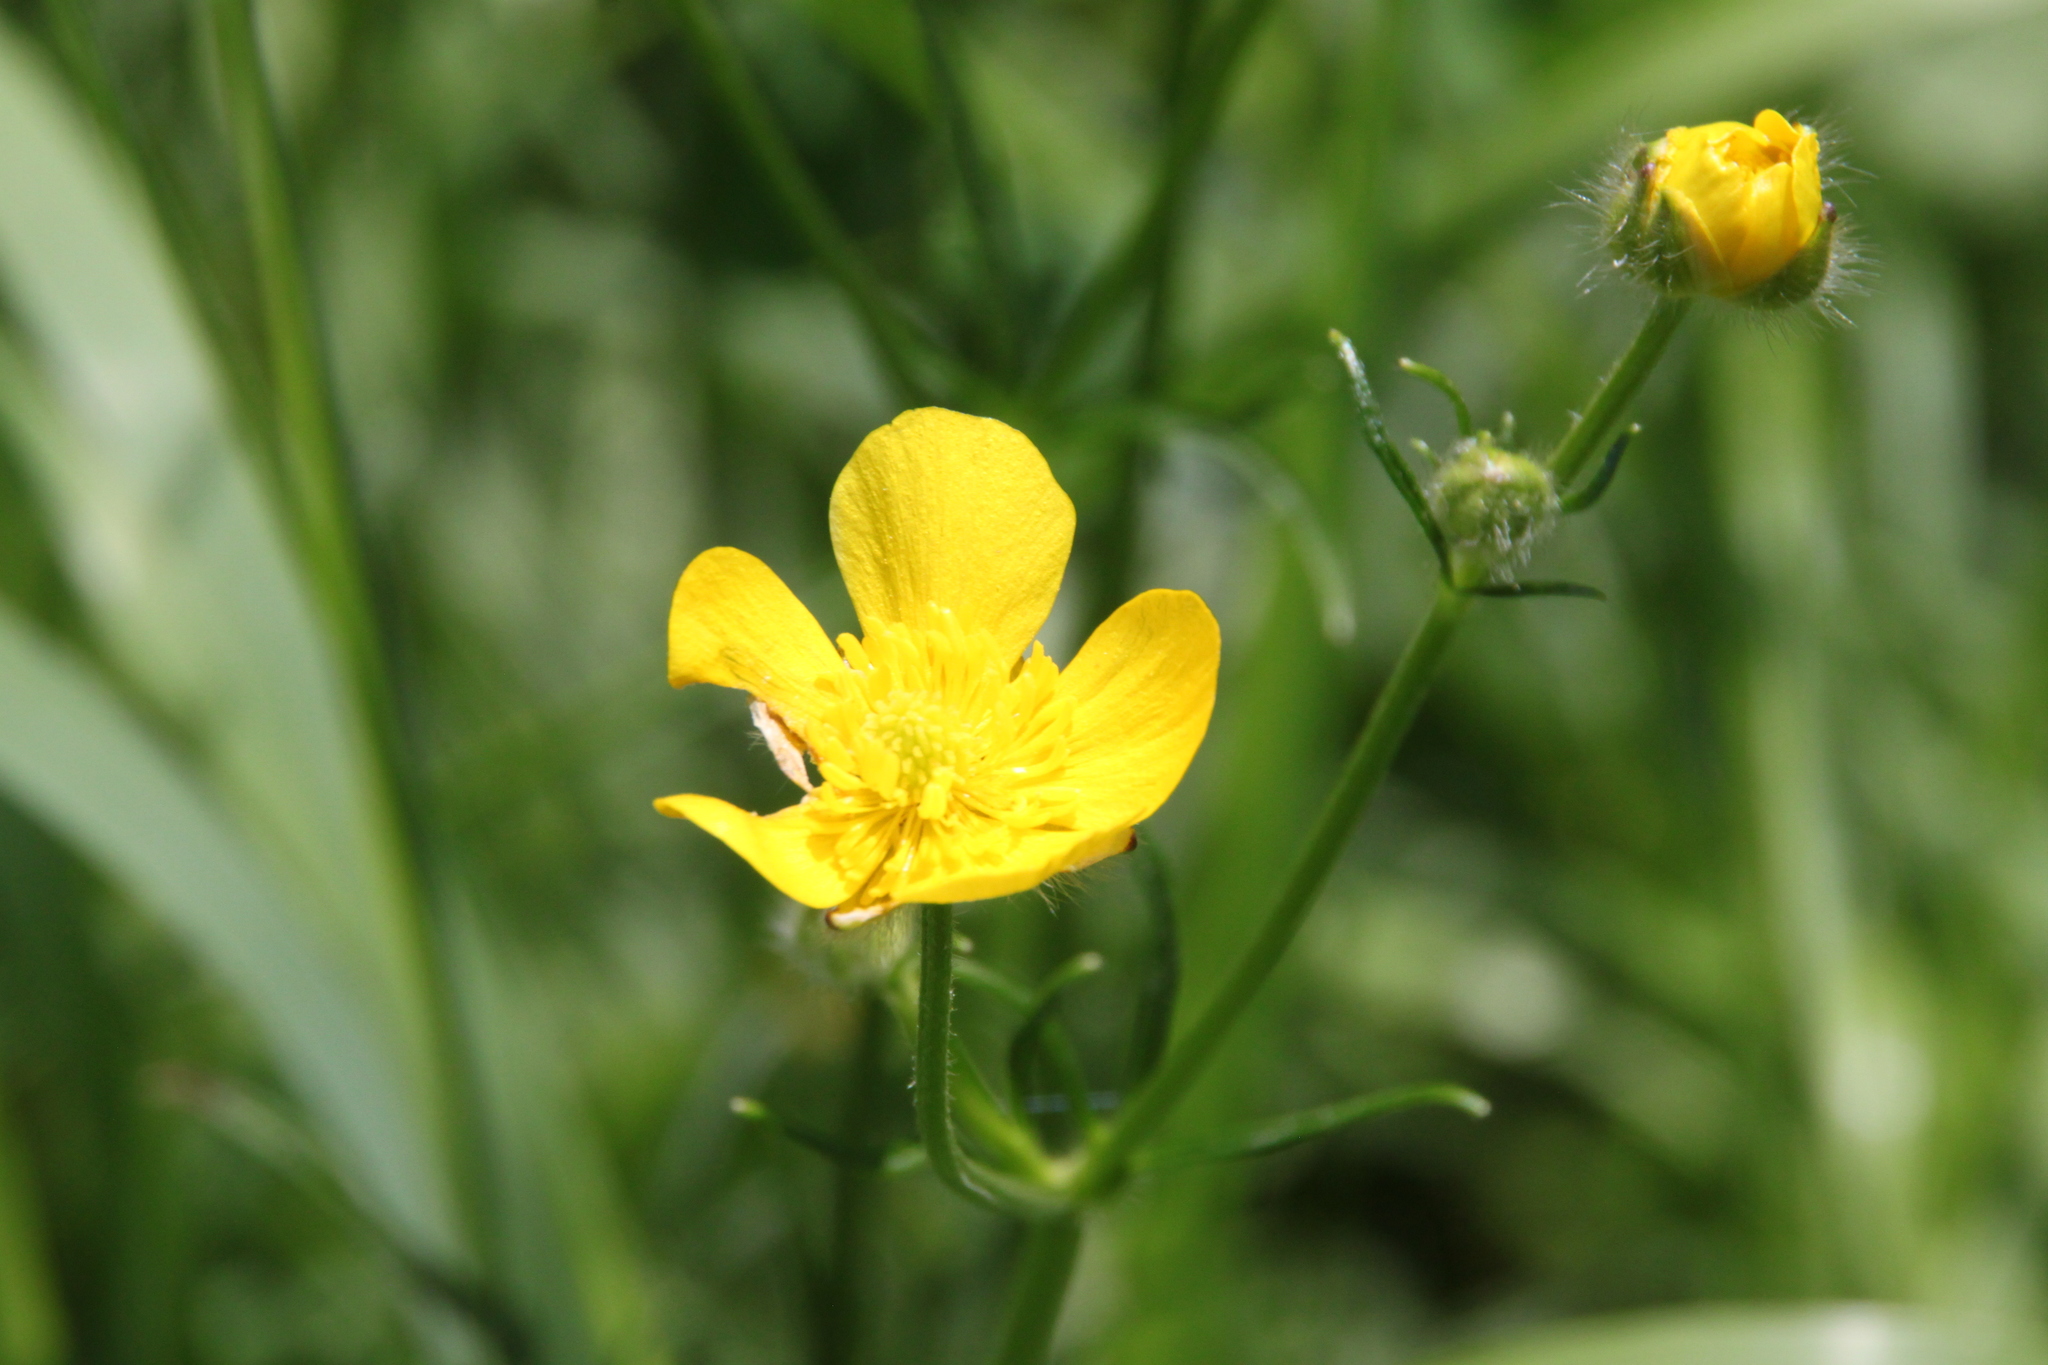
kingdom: Plantae
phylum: Tracheophyta
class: Magnoliopsida
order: Ranunculales
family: Ranunculaceae
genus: Ranunculus
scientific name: Ranunculus polyanthemos
